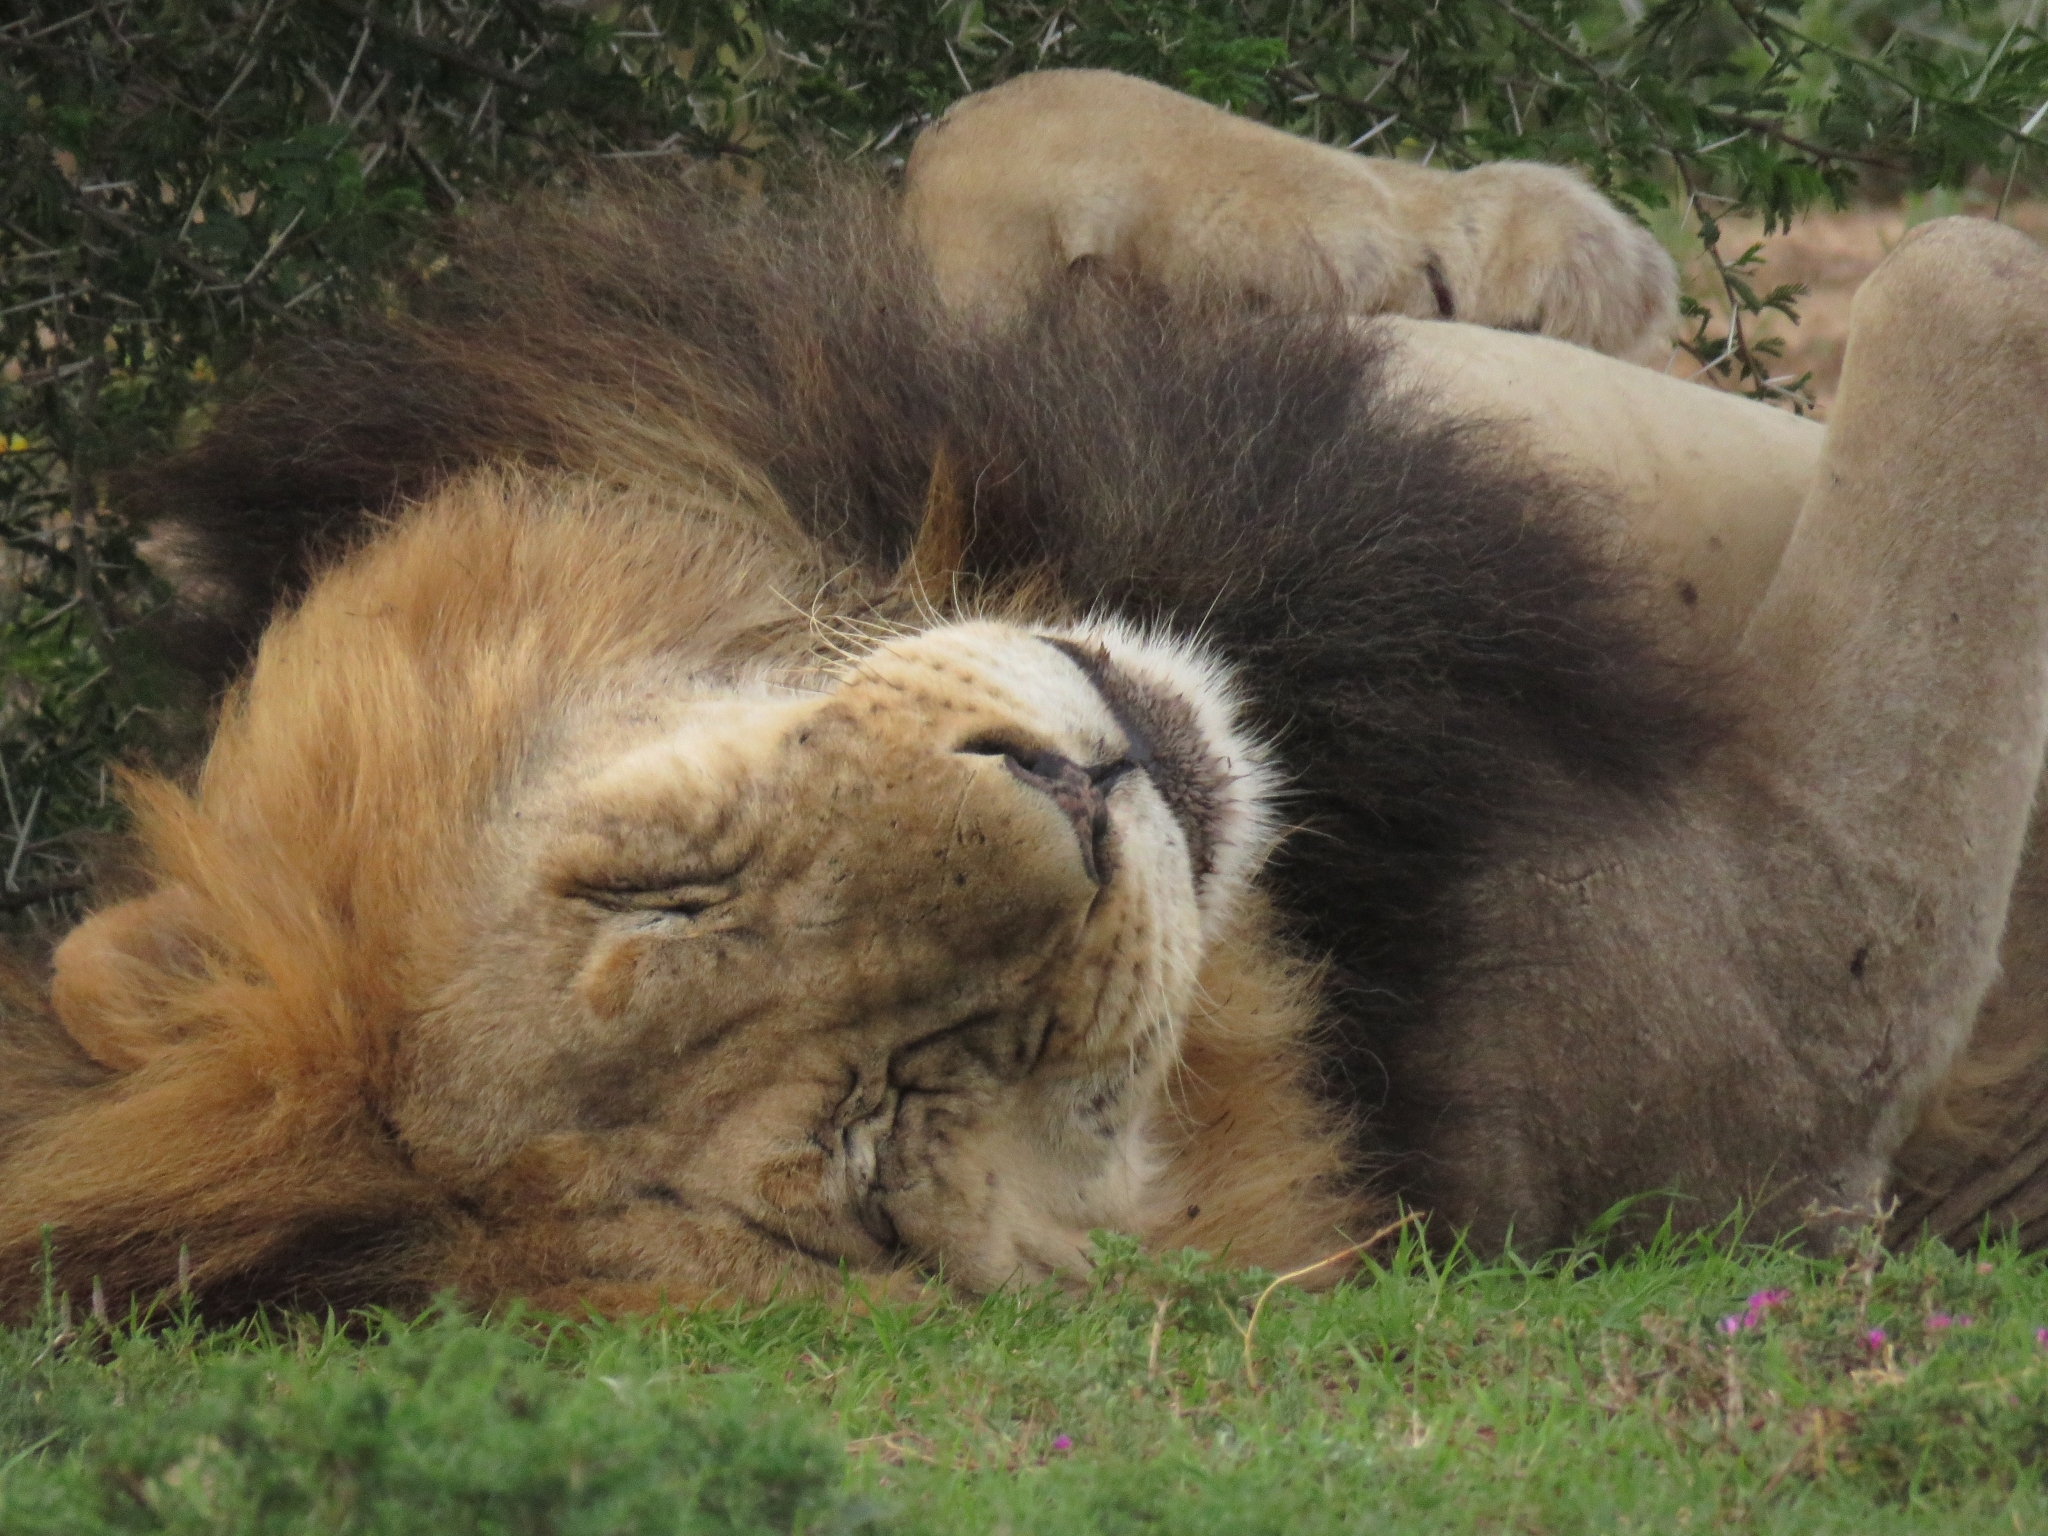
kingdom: Animalia
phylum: Chordata
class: Mammalia
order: Carnivora
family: Felidae
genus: Panthera
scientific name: Panthera leo
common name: Lion
